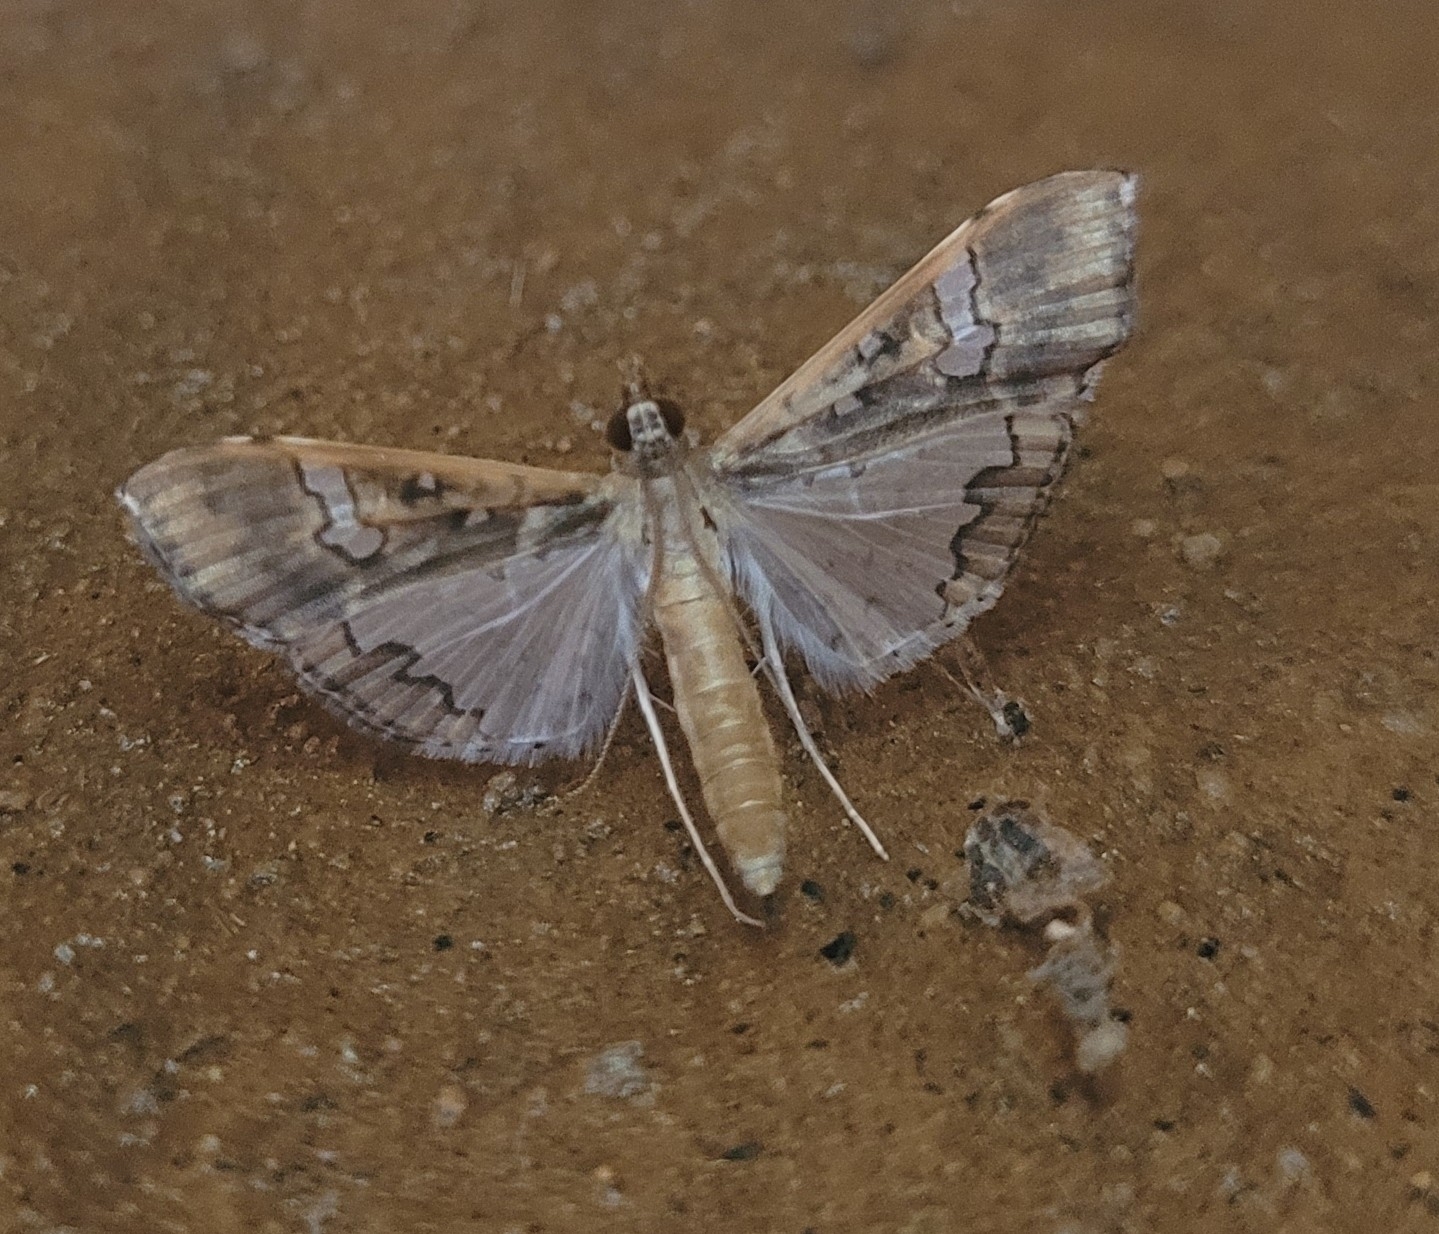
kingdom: Animalia
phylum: Arthropoda
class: Insecta
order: Lepidoptera
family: Crambidae
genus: Maruca
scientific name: Maruca vitrata
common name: Maruca pod borer
